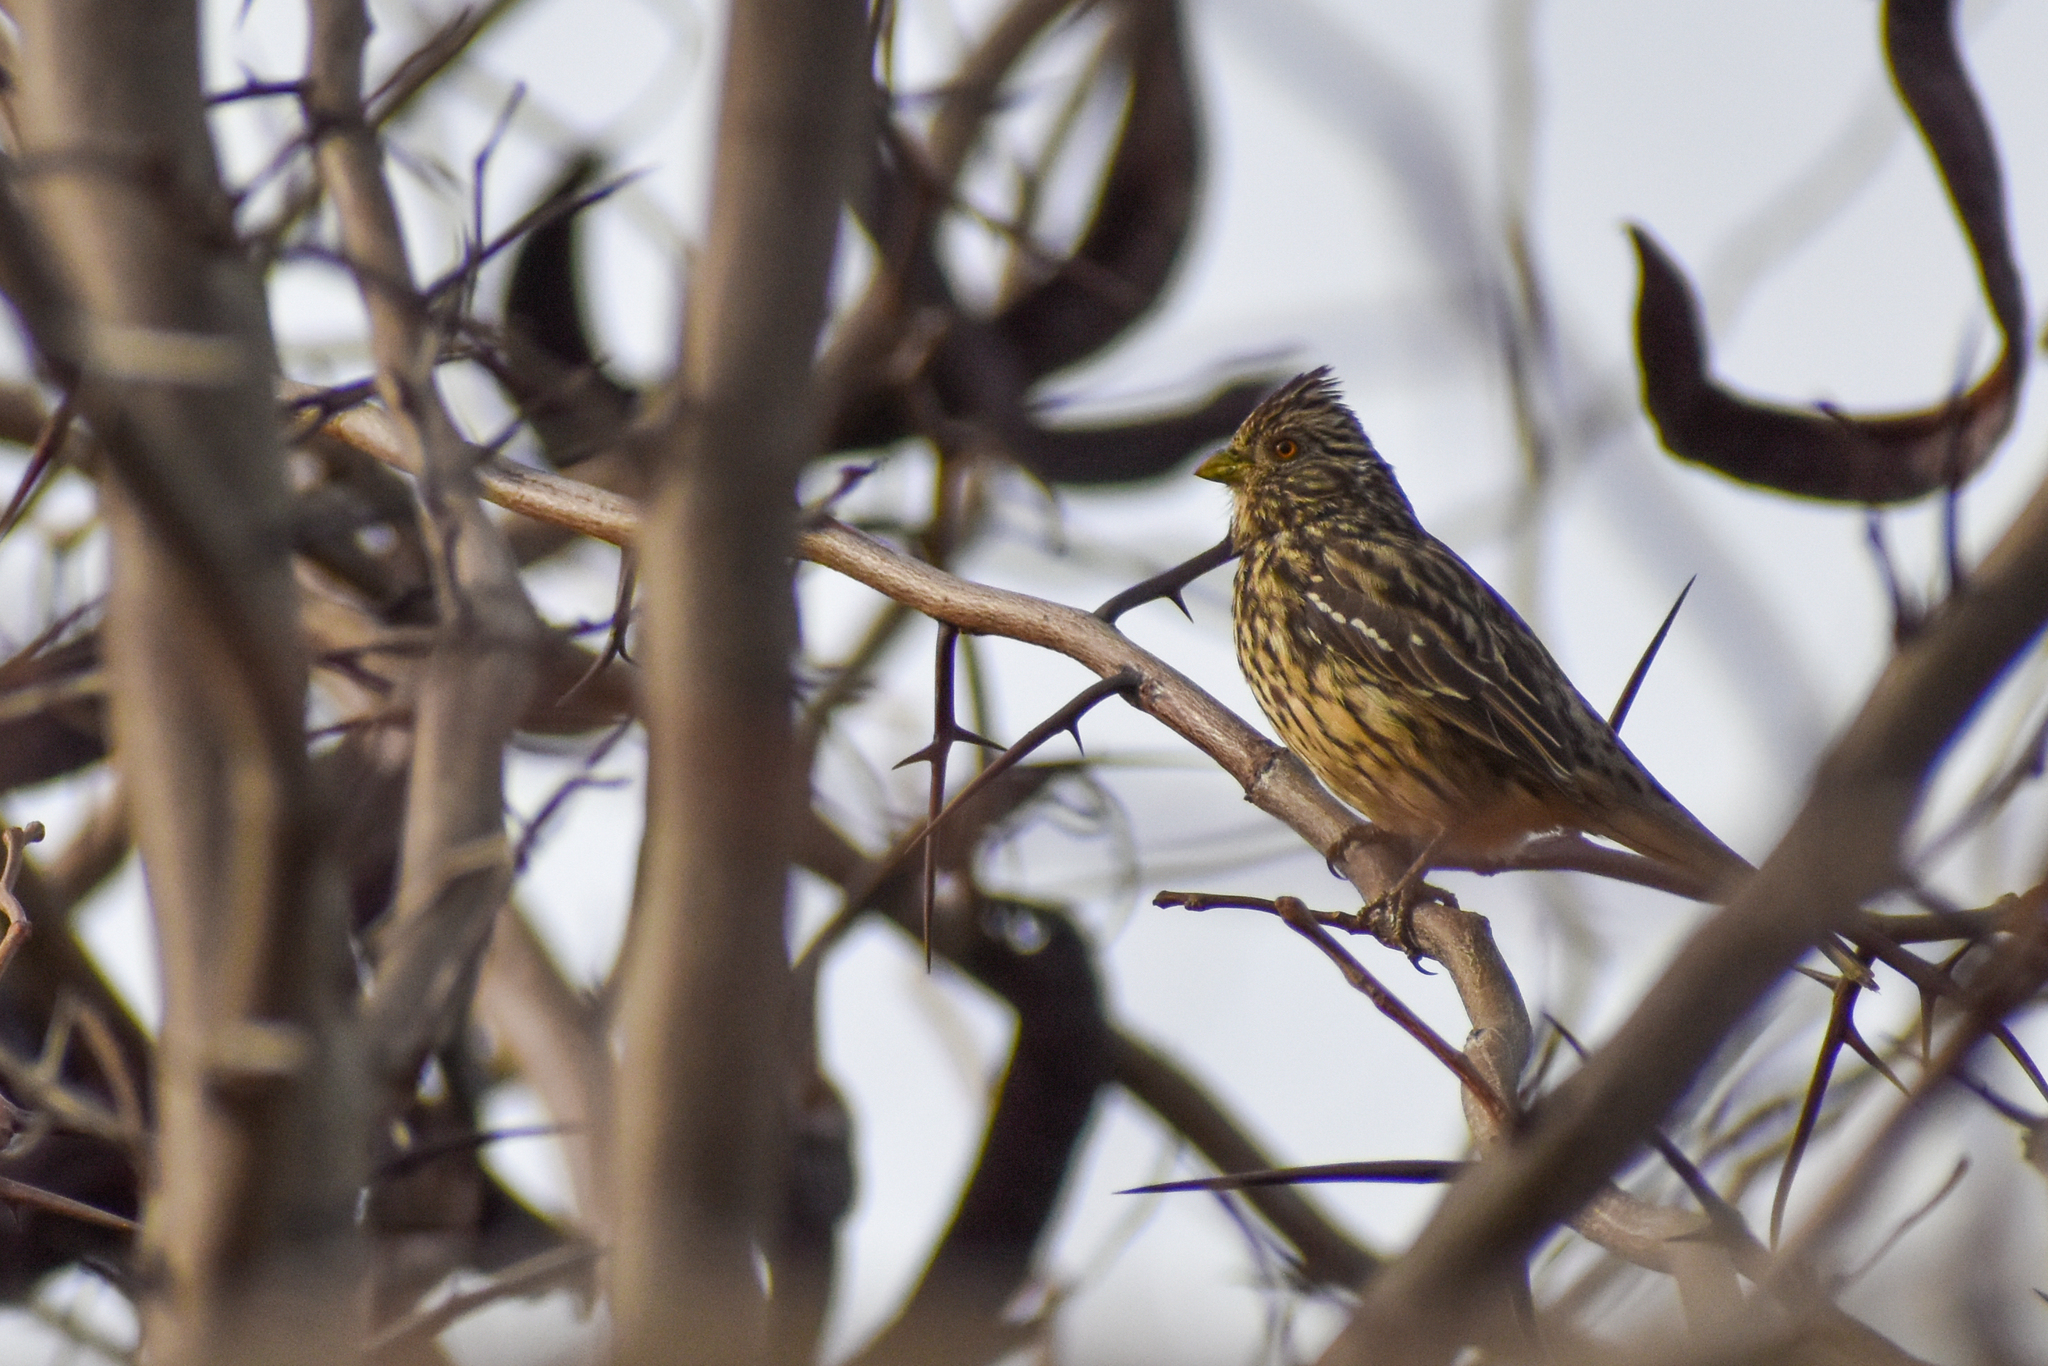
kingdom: Animalia
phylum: Chordata
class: Aves
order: Passeriformes
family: Cotingidae
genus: Phytotoma
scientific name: Phytotoma rutila
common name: White-tipped plantcutter
